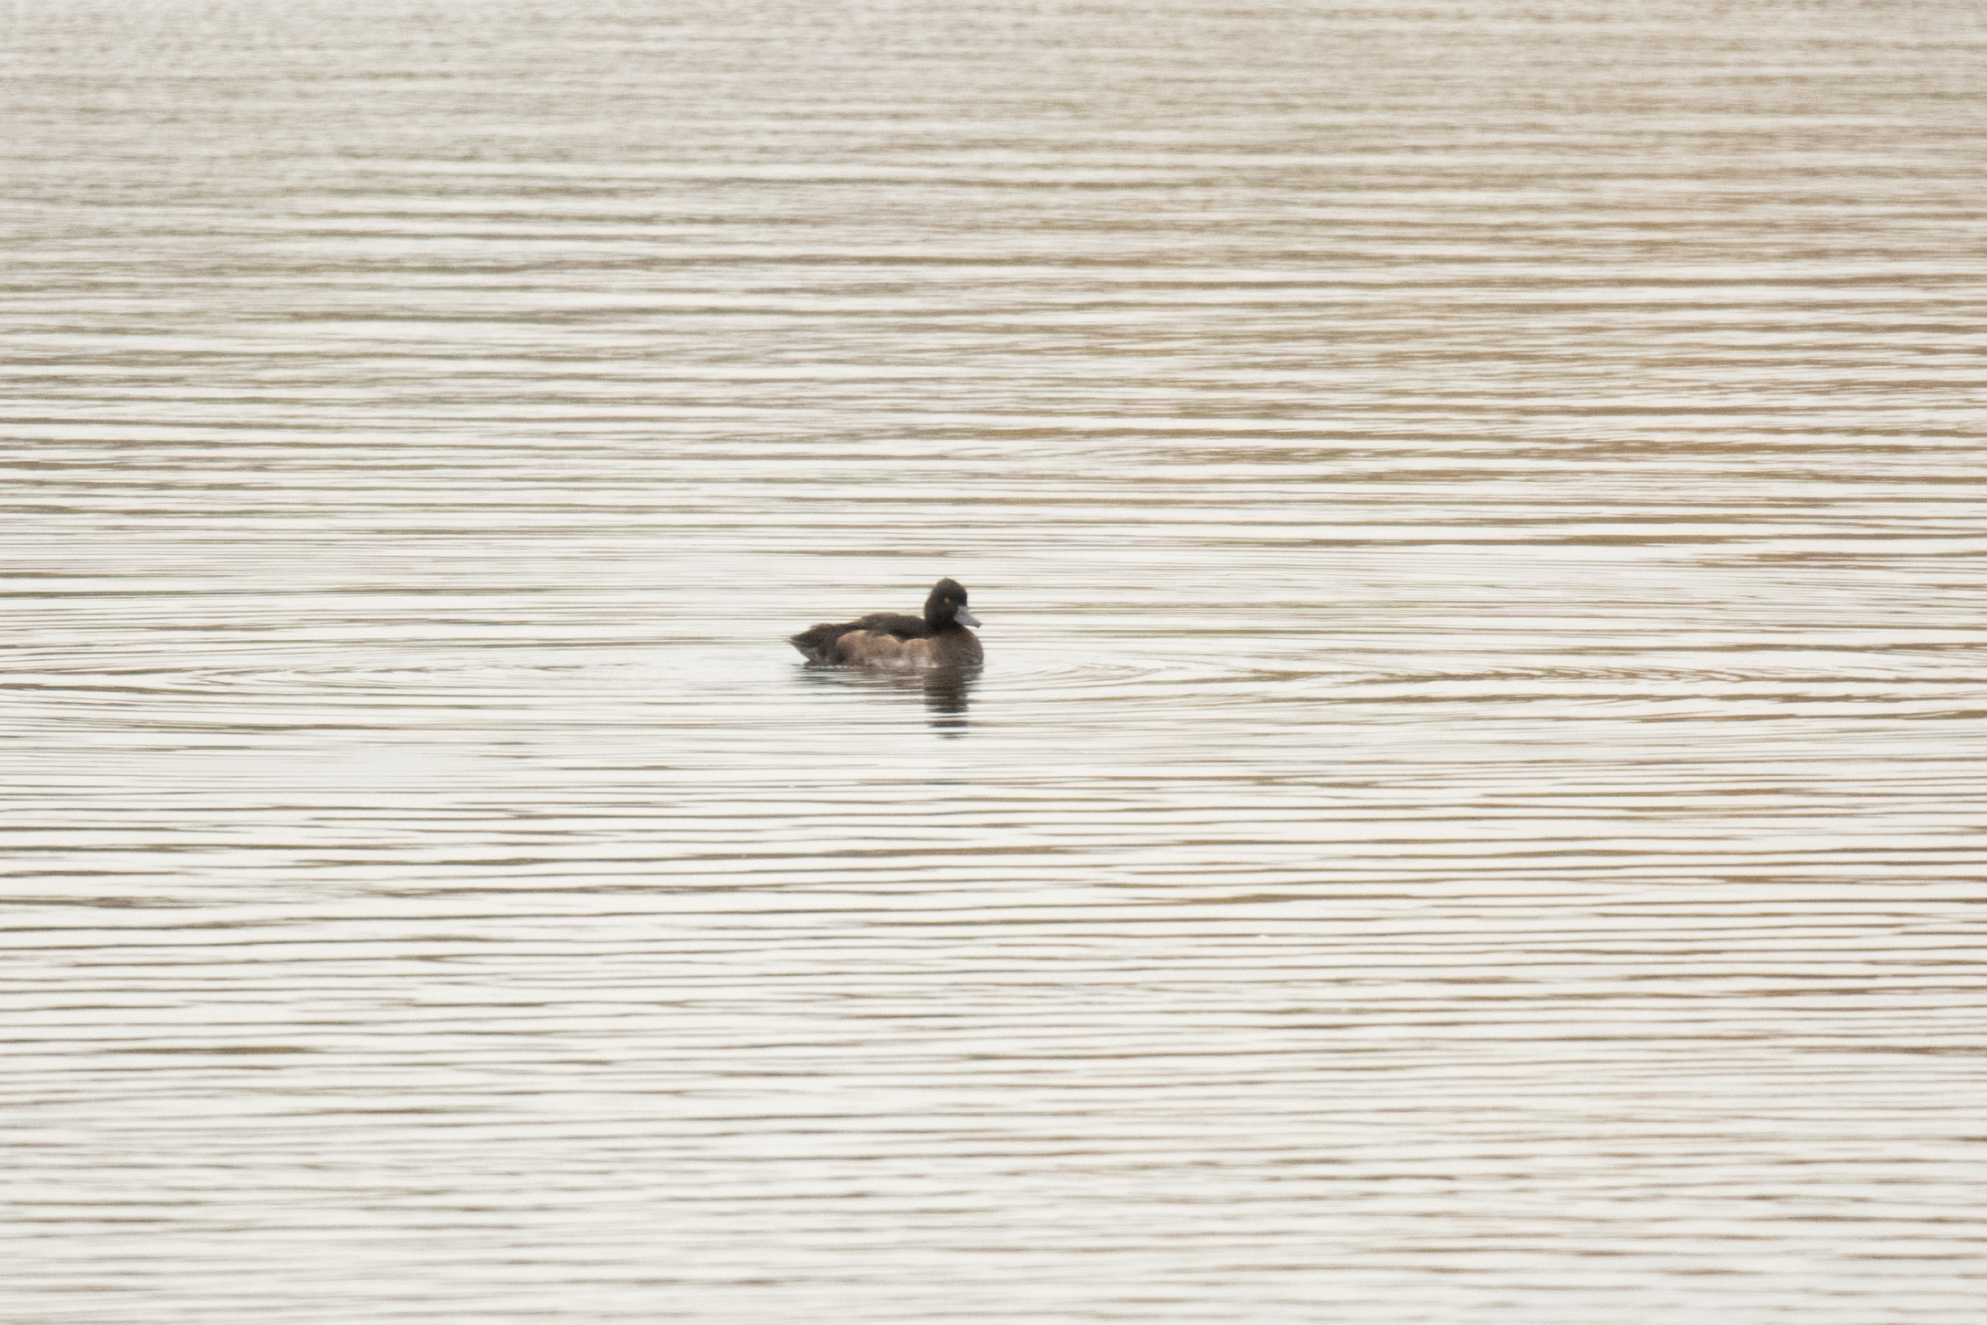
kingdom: Animalia
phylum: Chordata
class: Aves
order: Anseriformes
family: Anatidae
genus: Aythya
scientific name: Aythya fuligula
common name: Tufted duck
